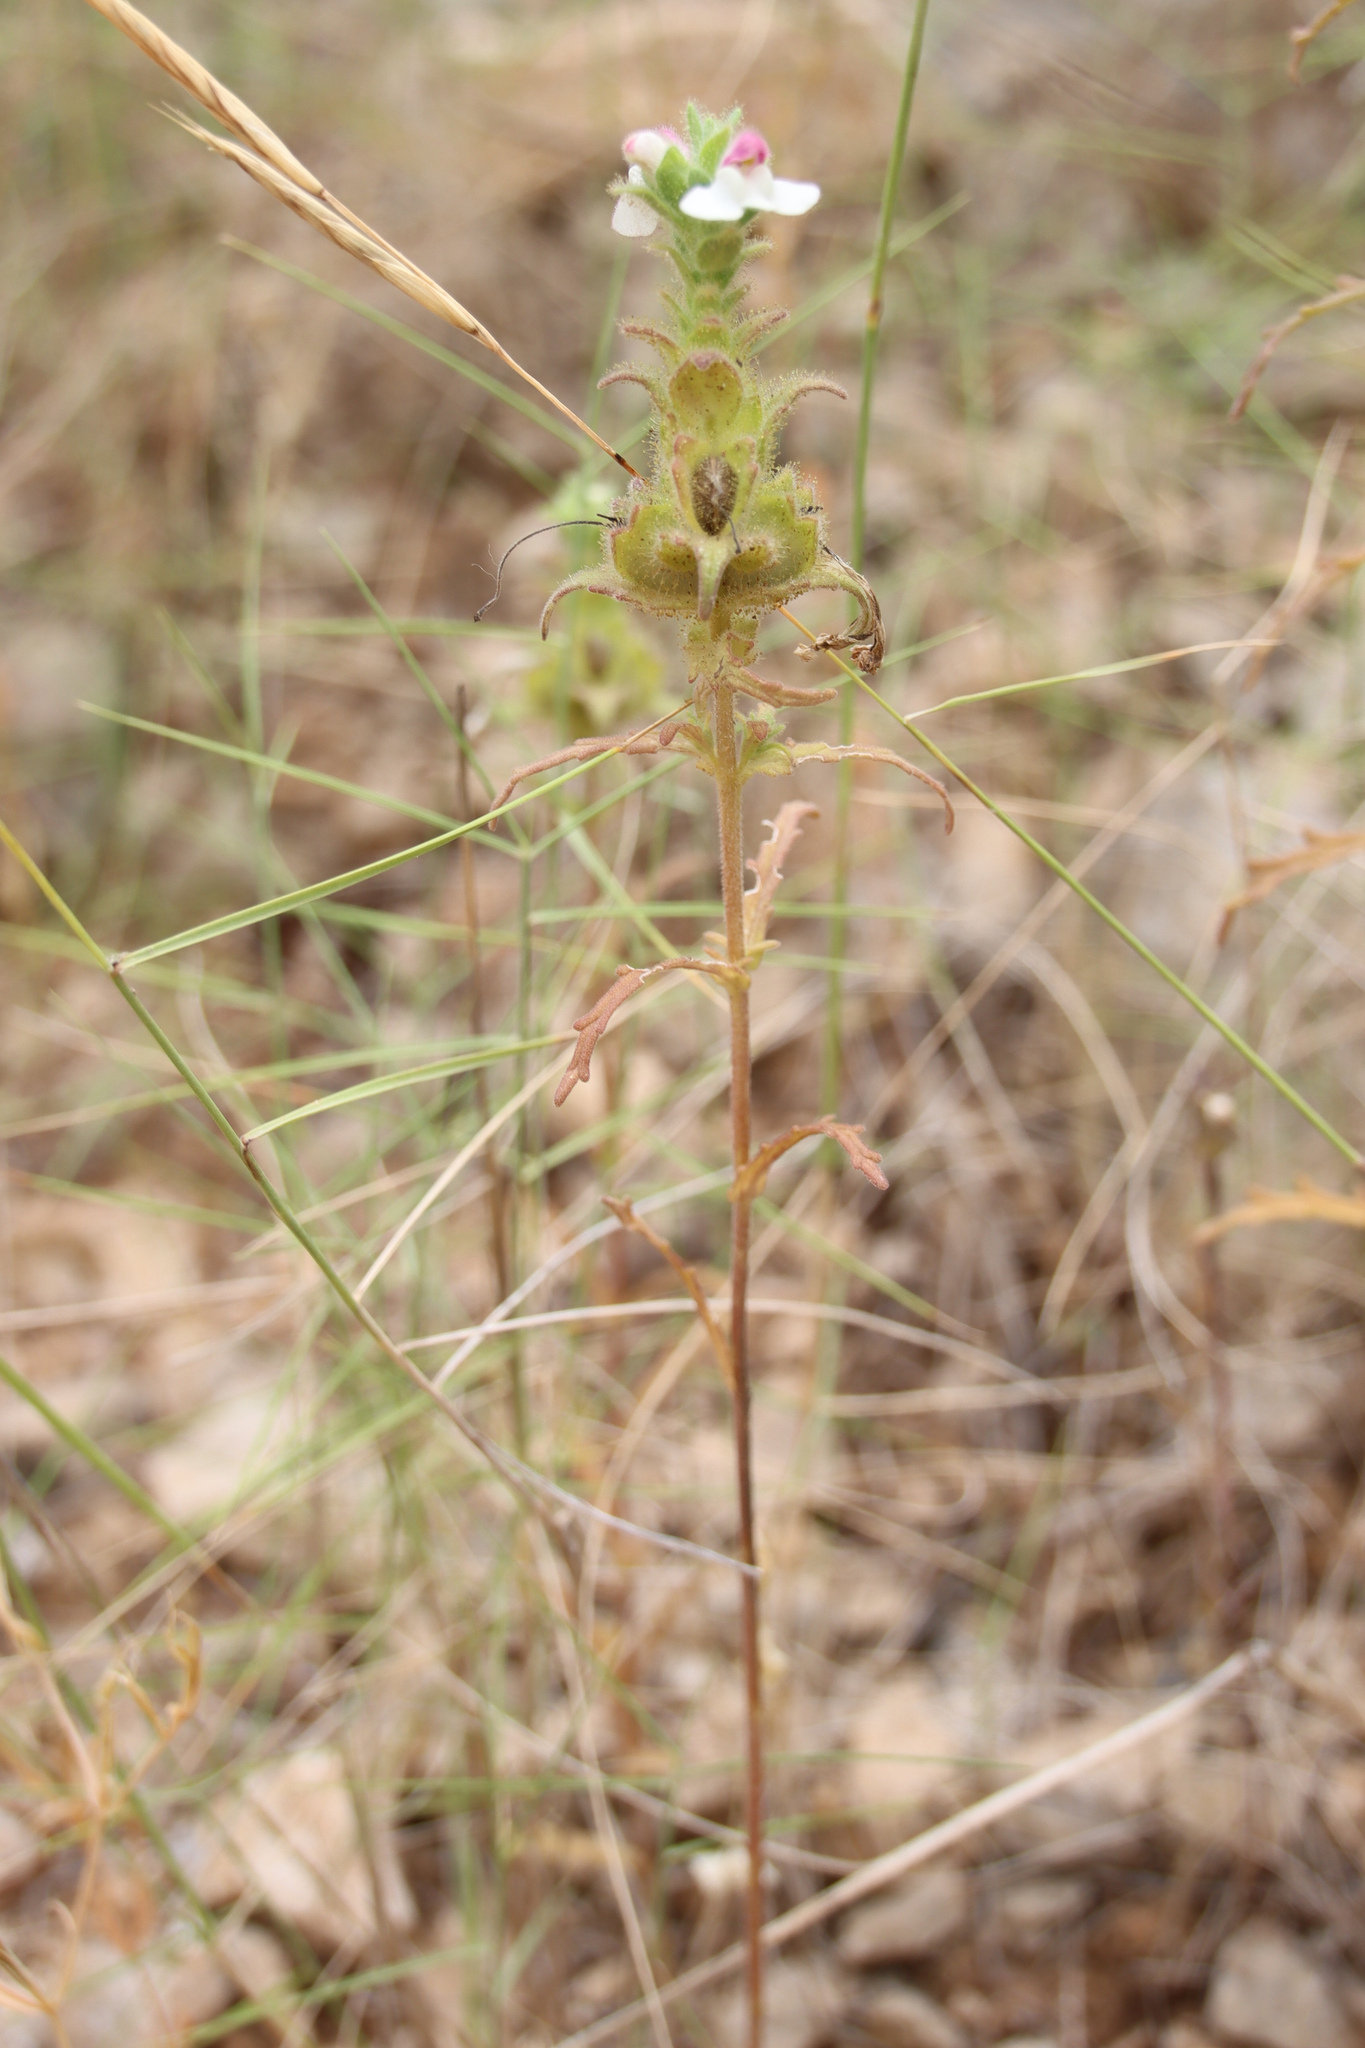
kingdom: Plantae
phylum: Tracheophyta
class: Magnoliopsida
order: Lamiales
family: Orobanchaceae
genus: Bellardia
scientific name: Bellardia trixago
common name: Mediterranean lineseed
